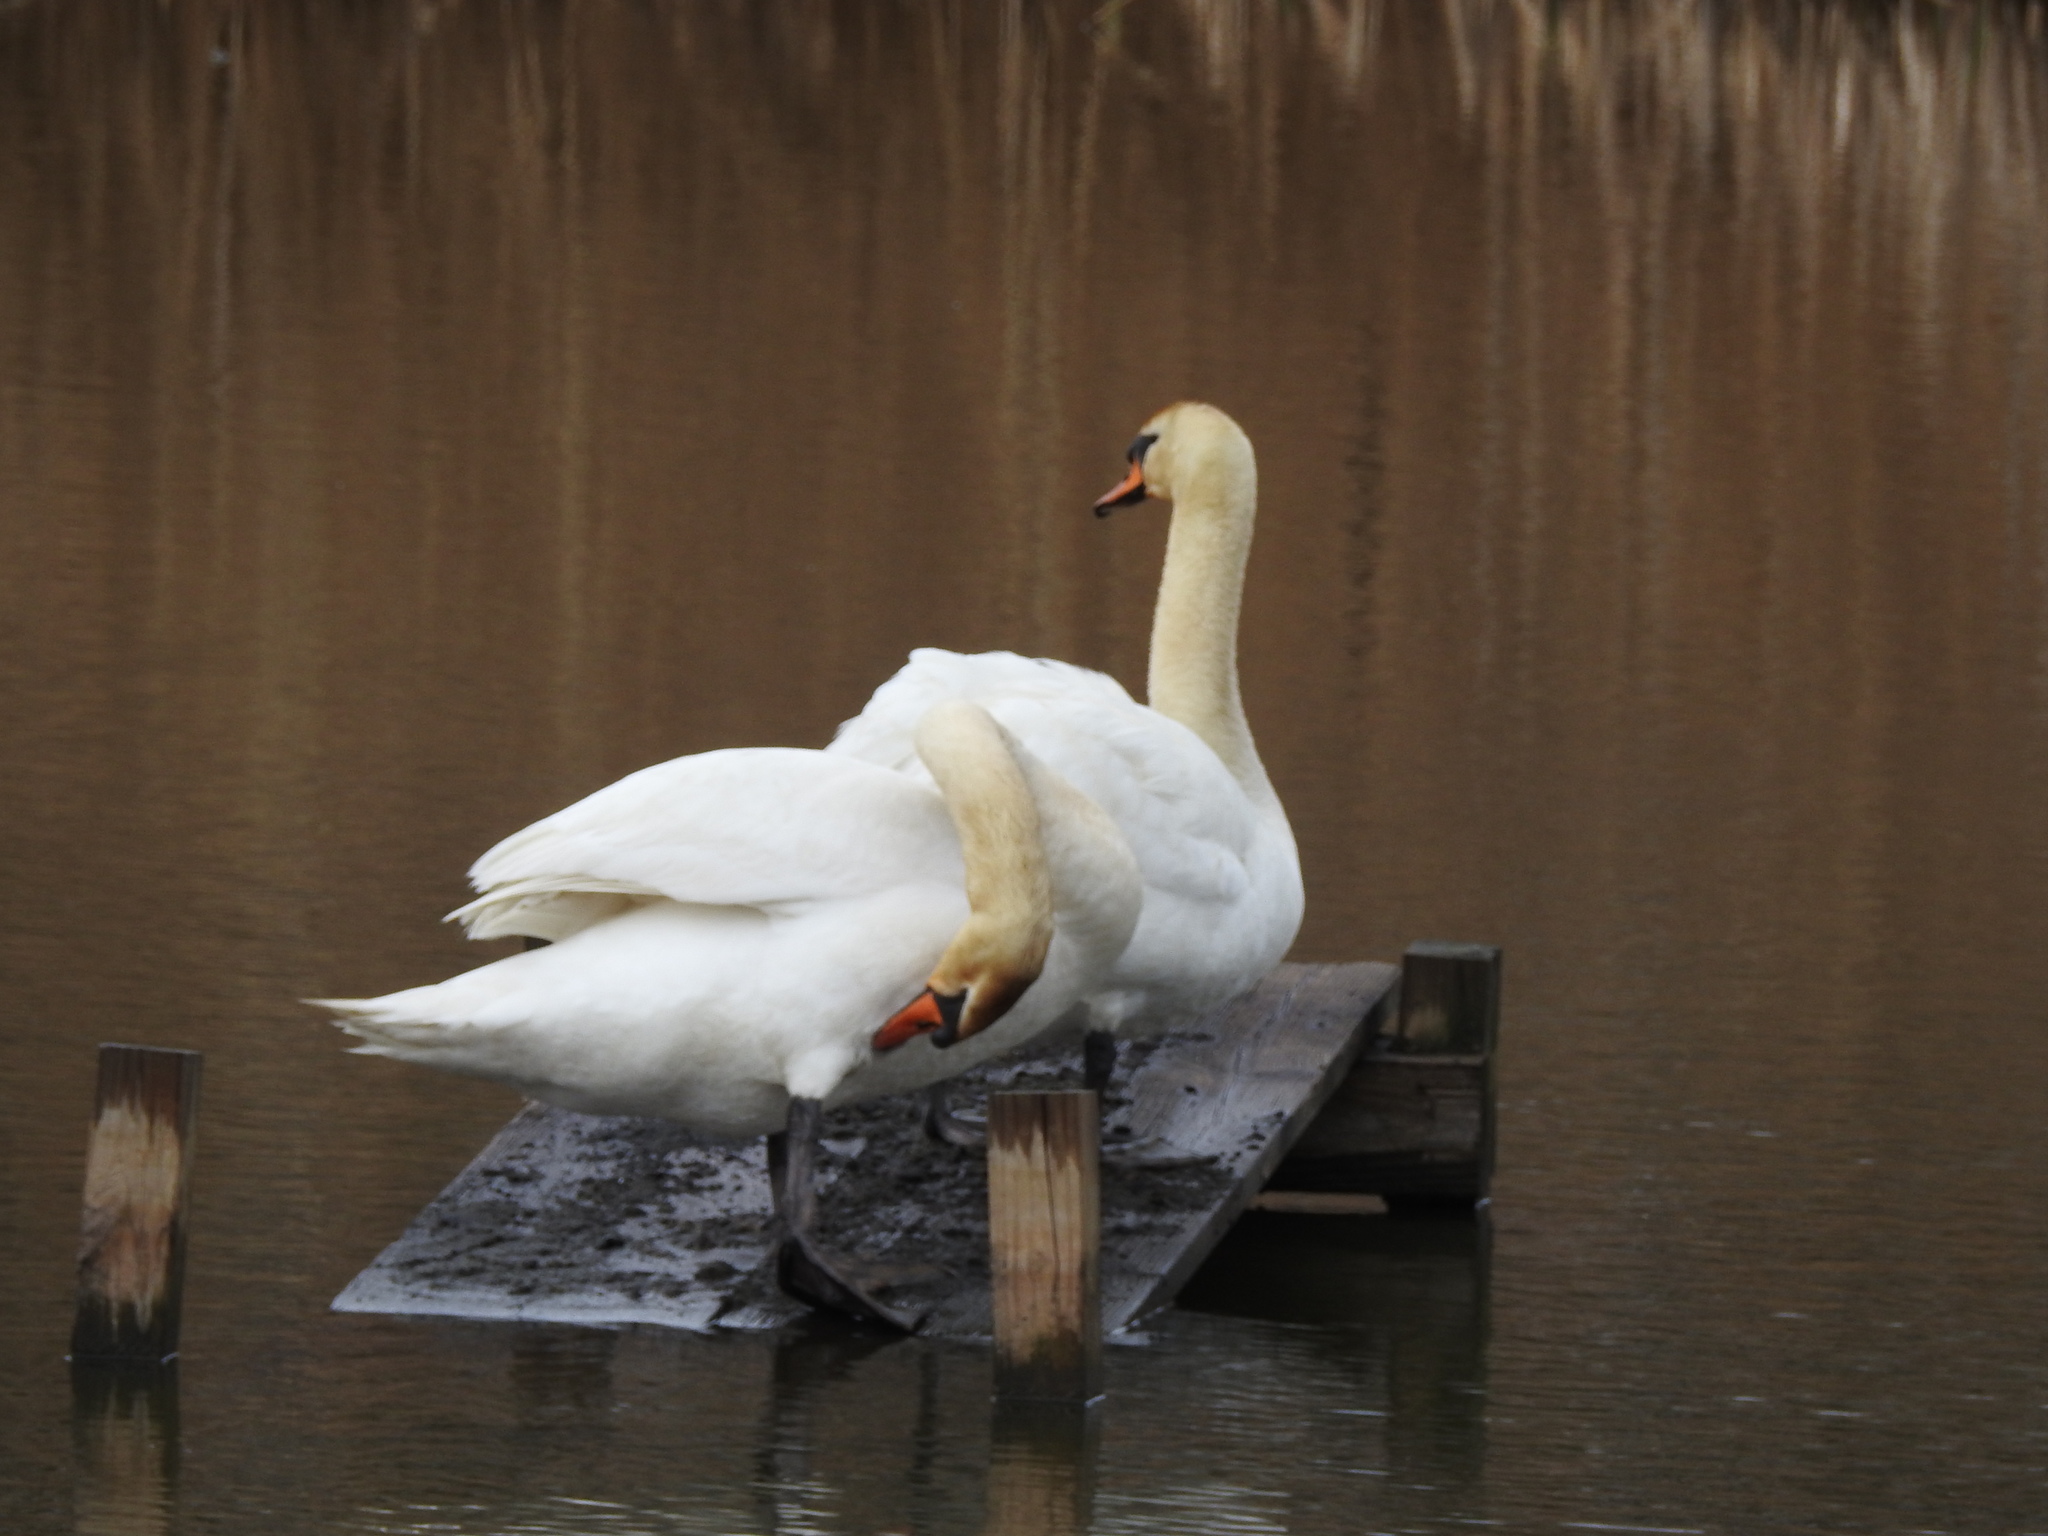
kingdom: Animalia
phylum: Chordata
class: Aves
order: Anseriformes
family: Anatidae
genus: Cygnus
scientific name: Cygnus olor
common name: Mute swan
